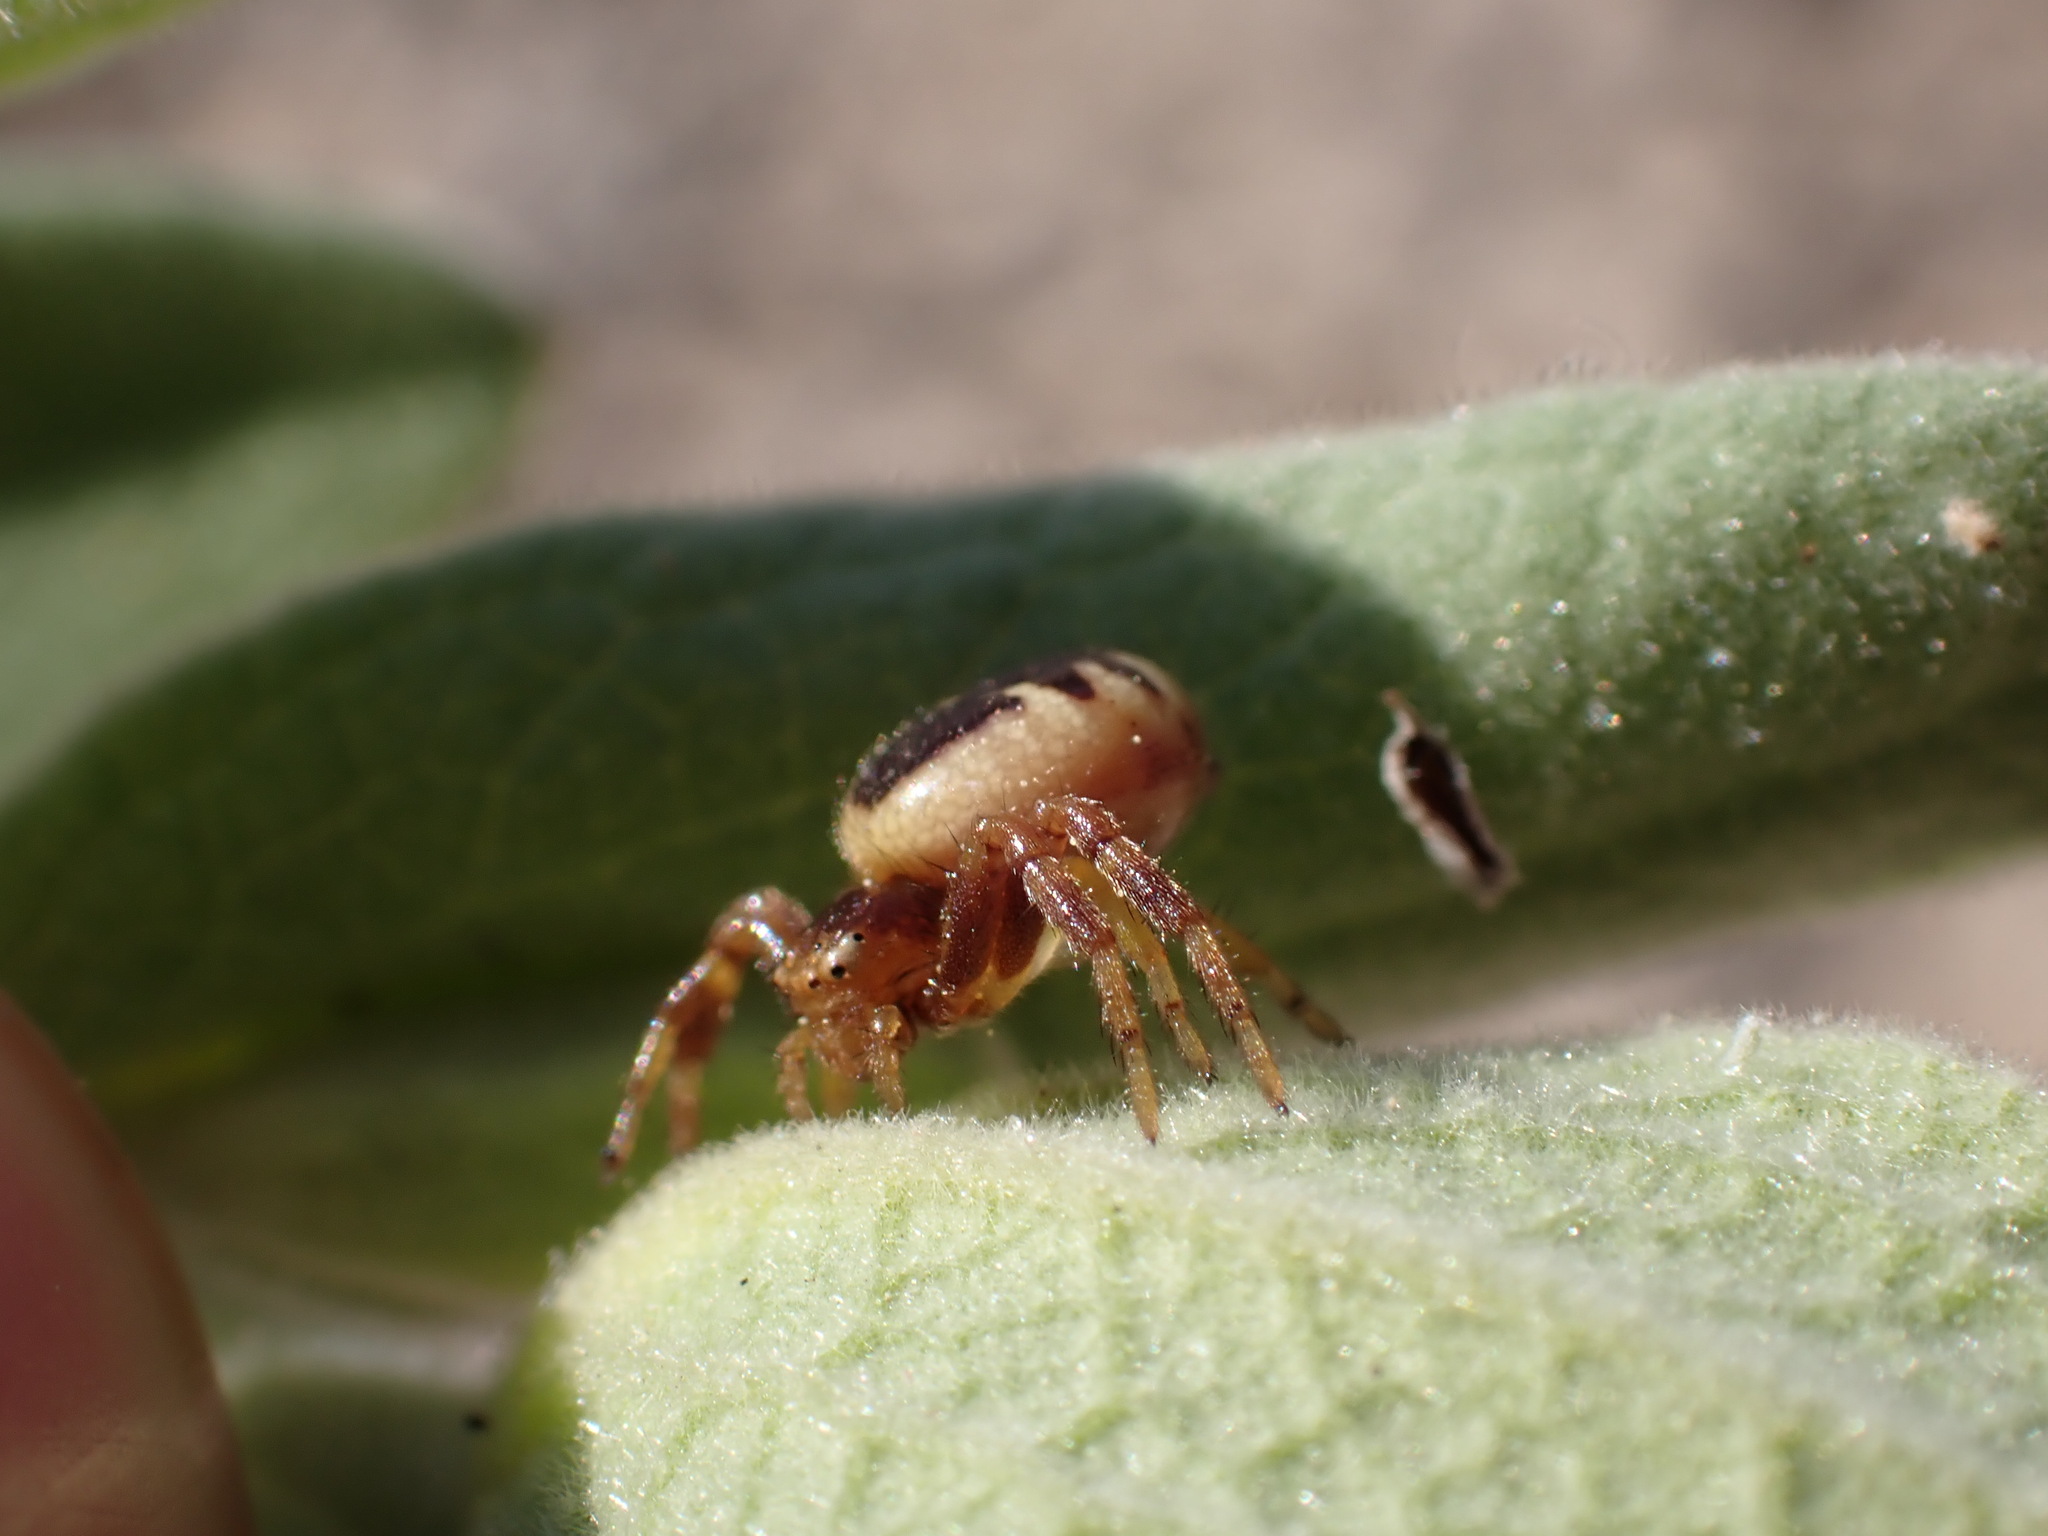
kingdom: Animalia
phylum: Arthropoda
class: Arachnida
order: Araneae
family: Thomisidae
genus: Synema
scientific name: Synema globosum
